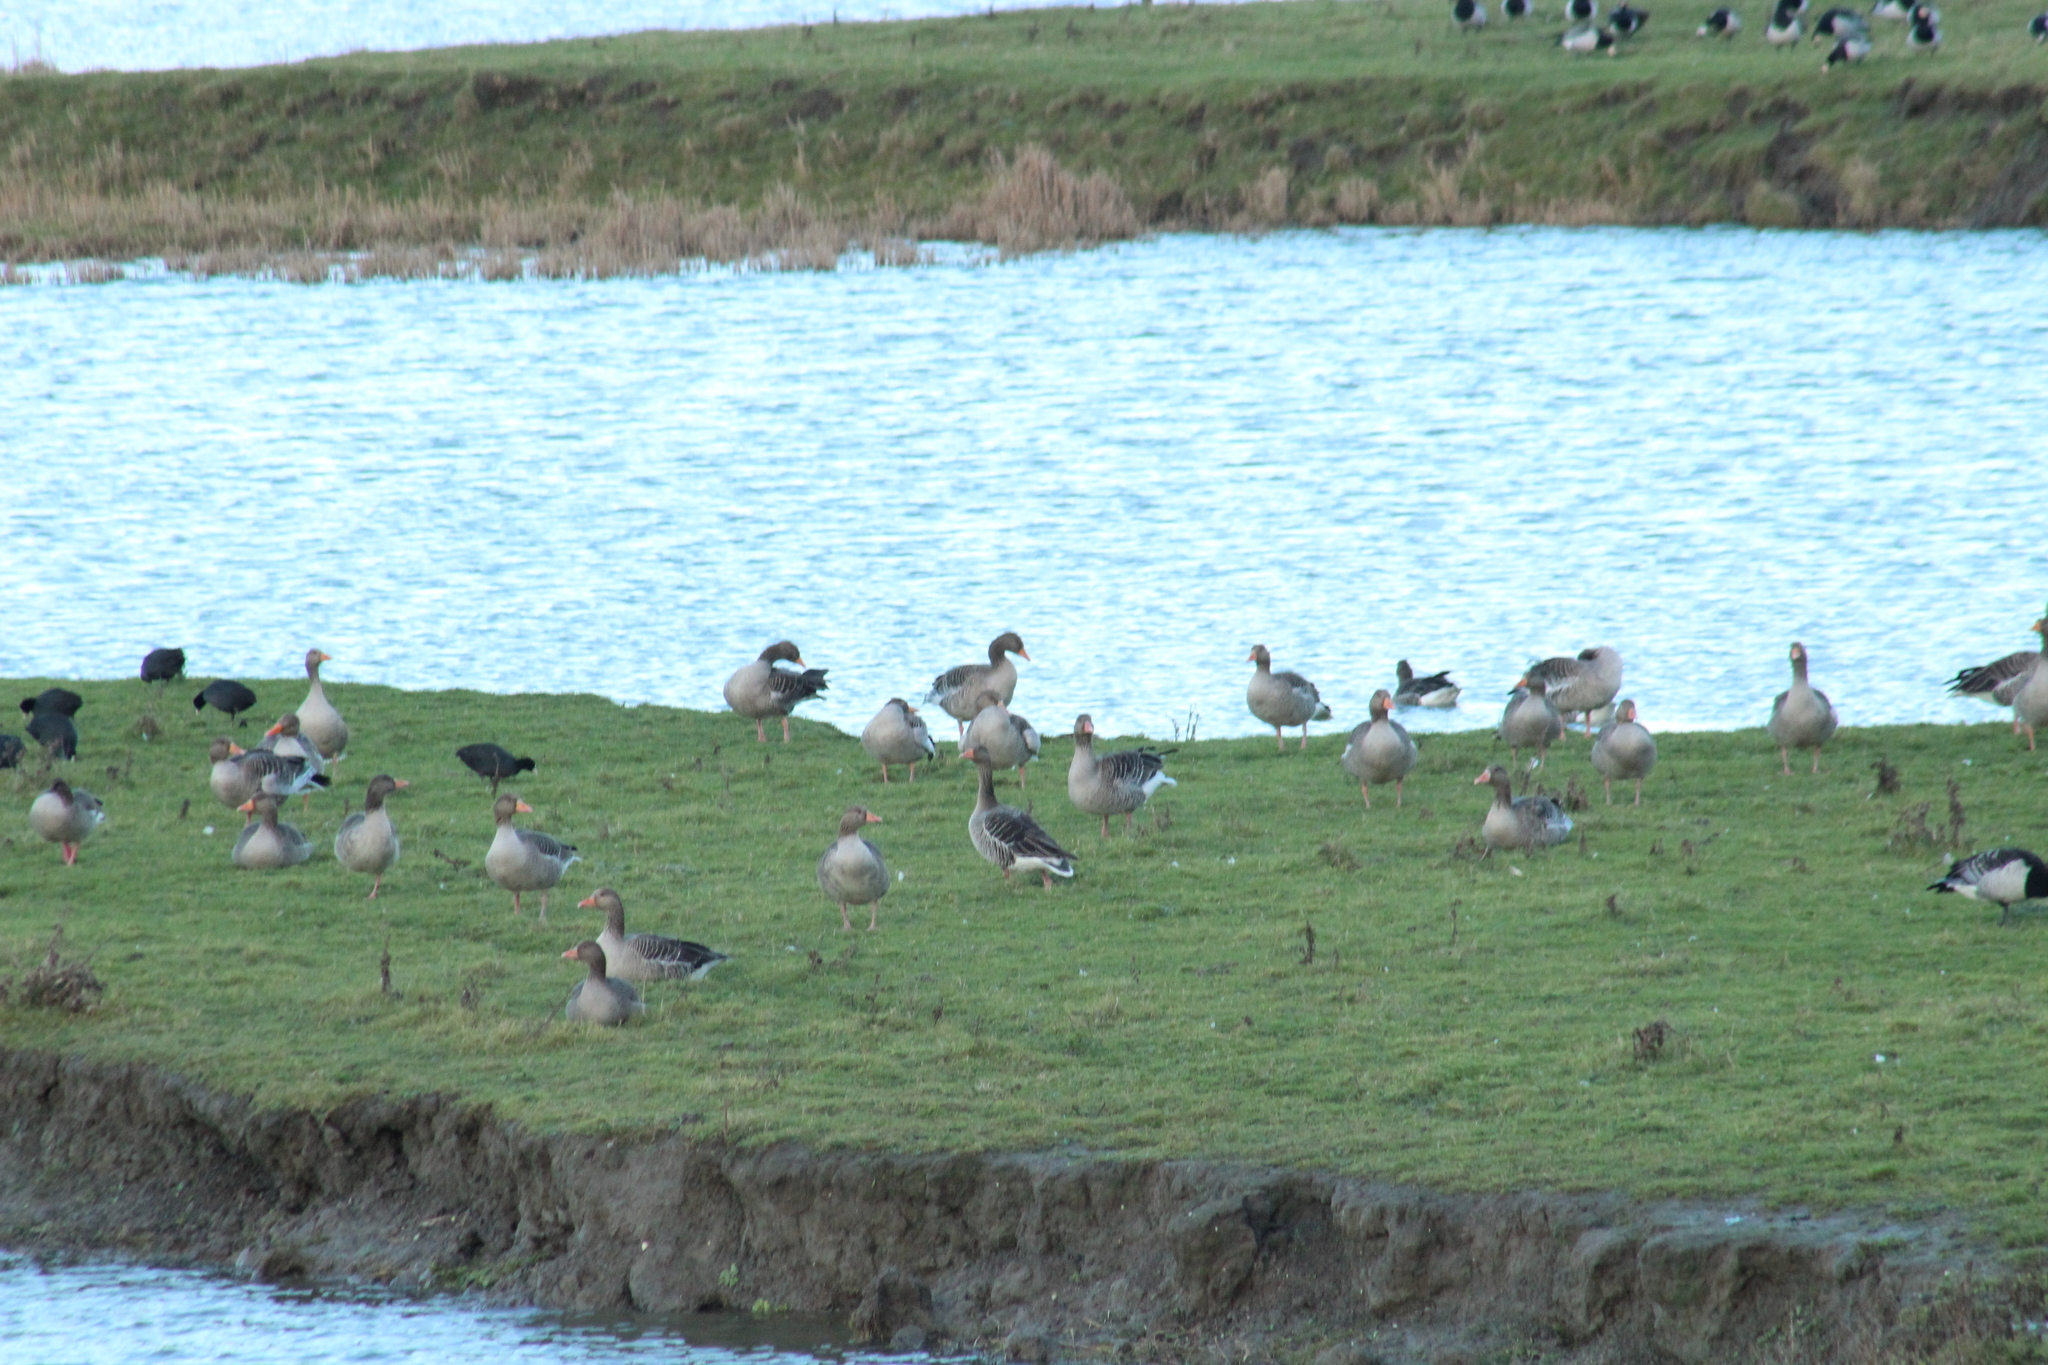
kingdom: Animalia
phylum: Chordata
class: Aves
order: Anseriformes
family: Anatidae
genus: Anser
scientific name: Anser anser
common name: Greylag goose
